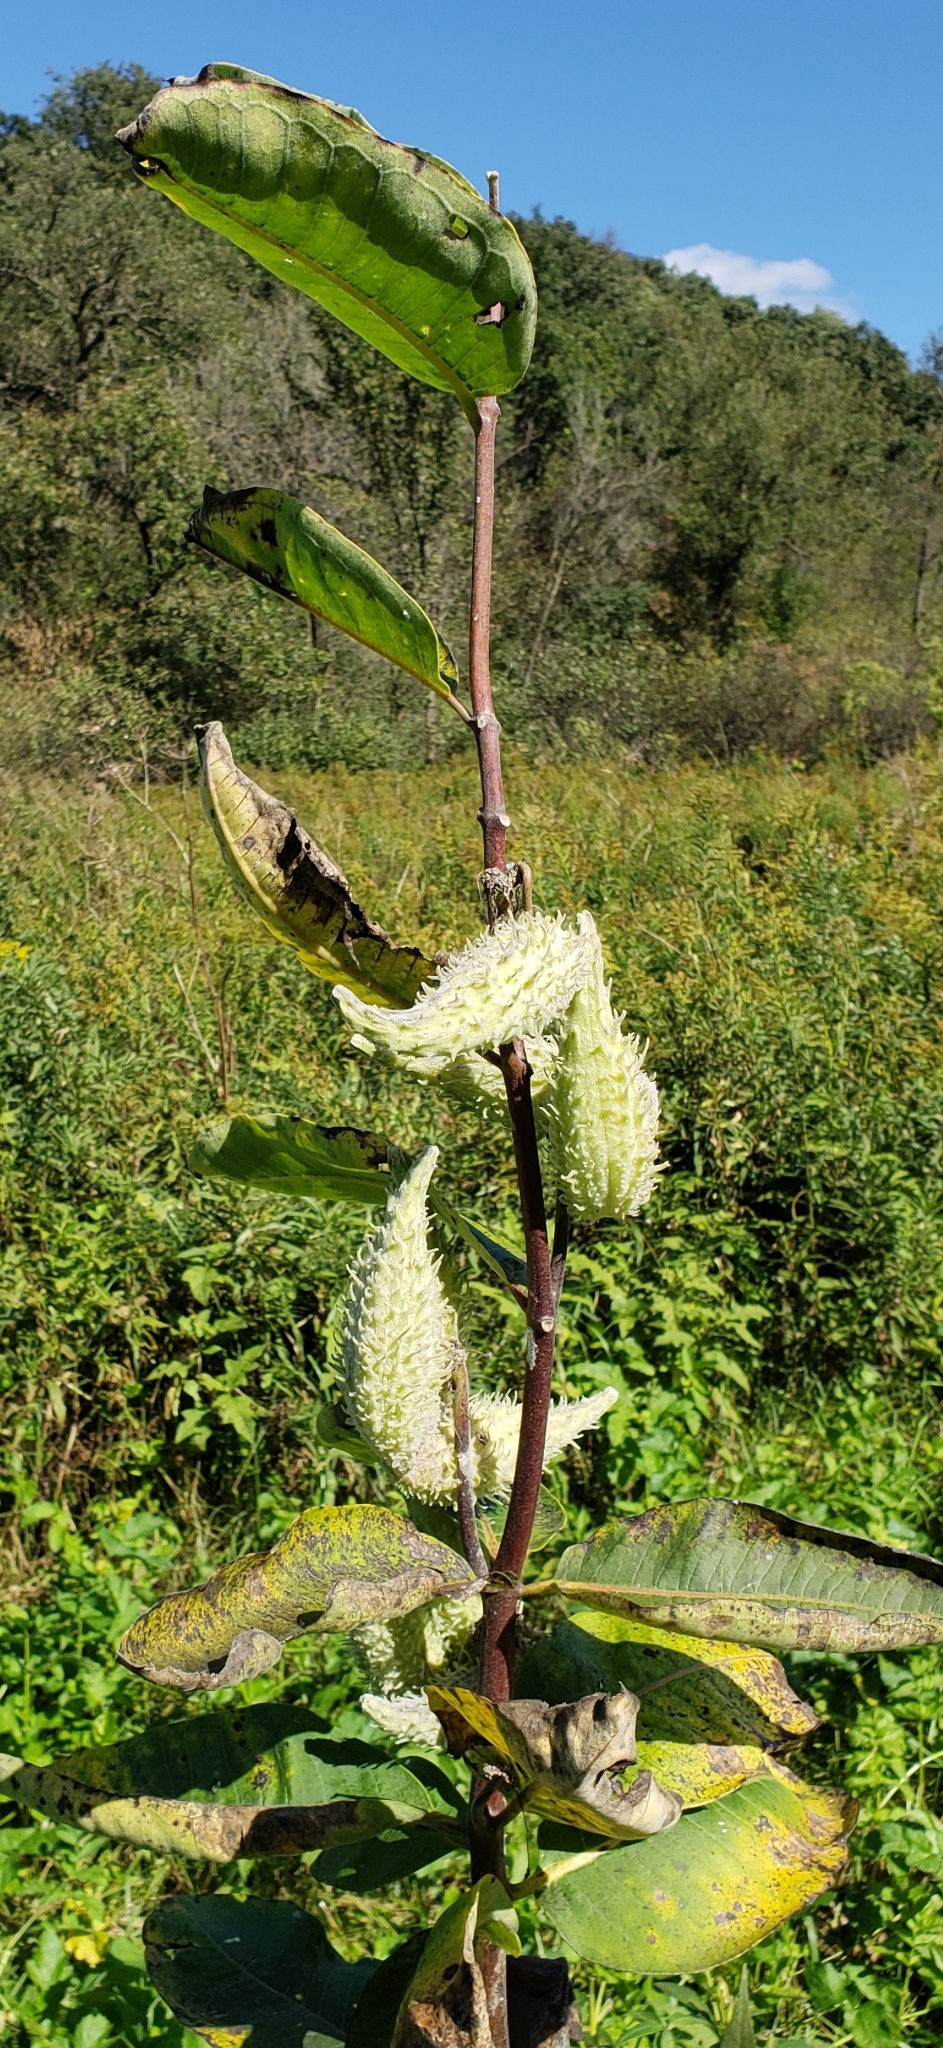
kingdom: Plantae
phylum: Tracheophyta
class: Magnoliopsida
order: Gentianales
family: Apocynaceae
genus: Asclepias
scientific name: Asclepias syriaca
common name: Common milkweed
